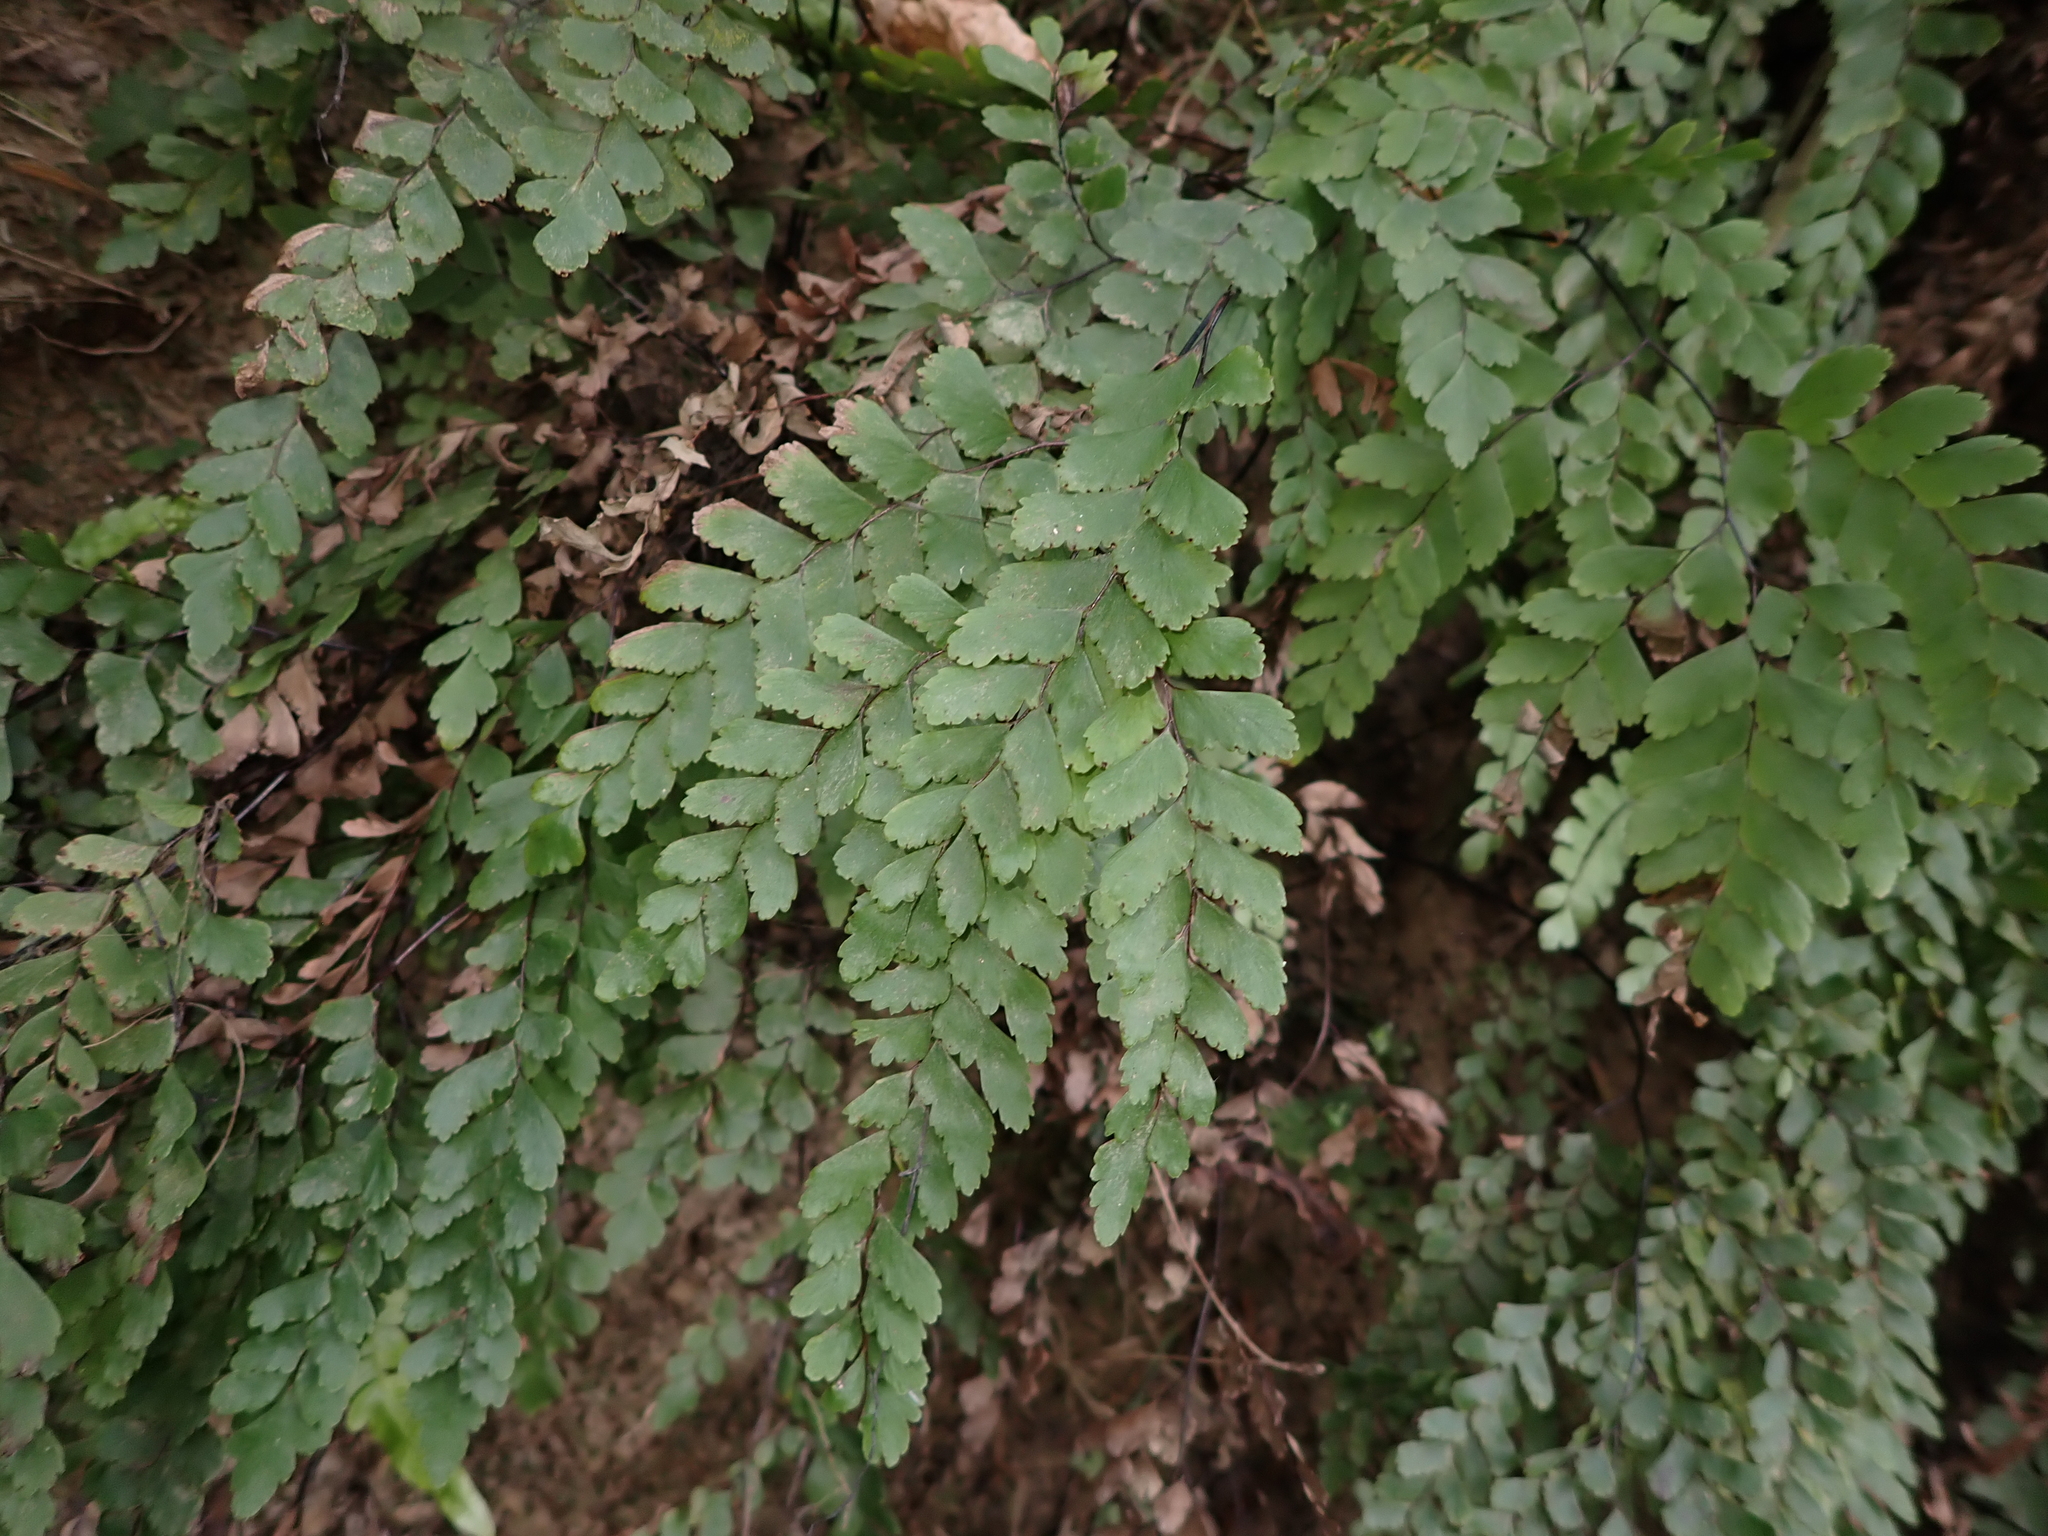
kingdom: Plantae
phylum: Tracheophyta
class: Polypodiopsida
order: Polypodiales
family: Pteridaceae
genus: Adiantum
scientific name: Adiantum cunninghamii
